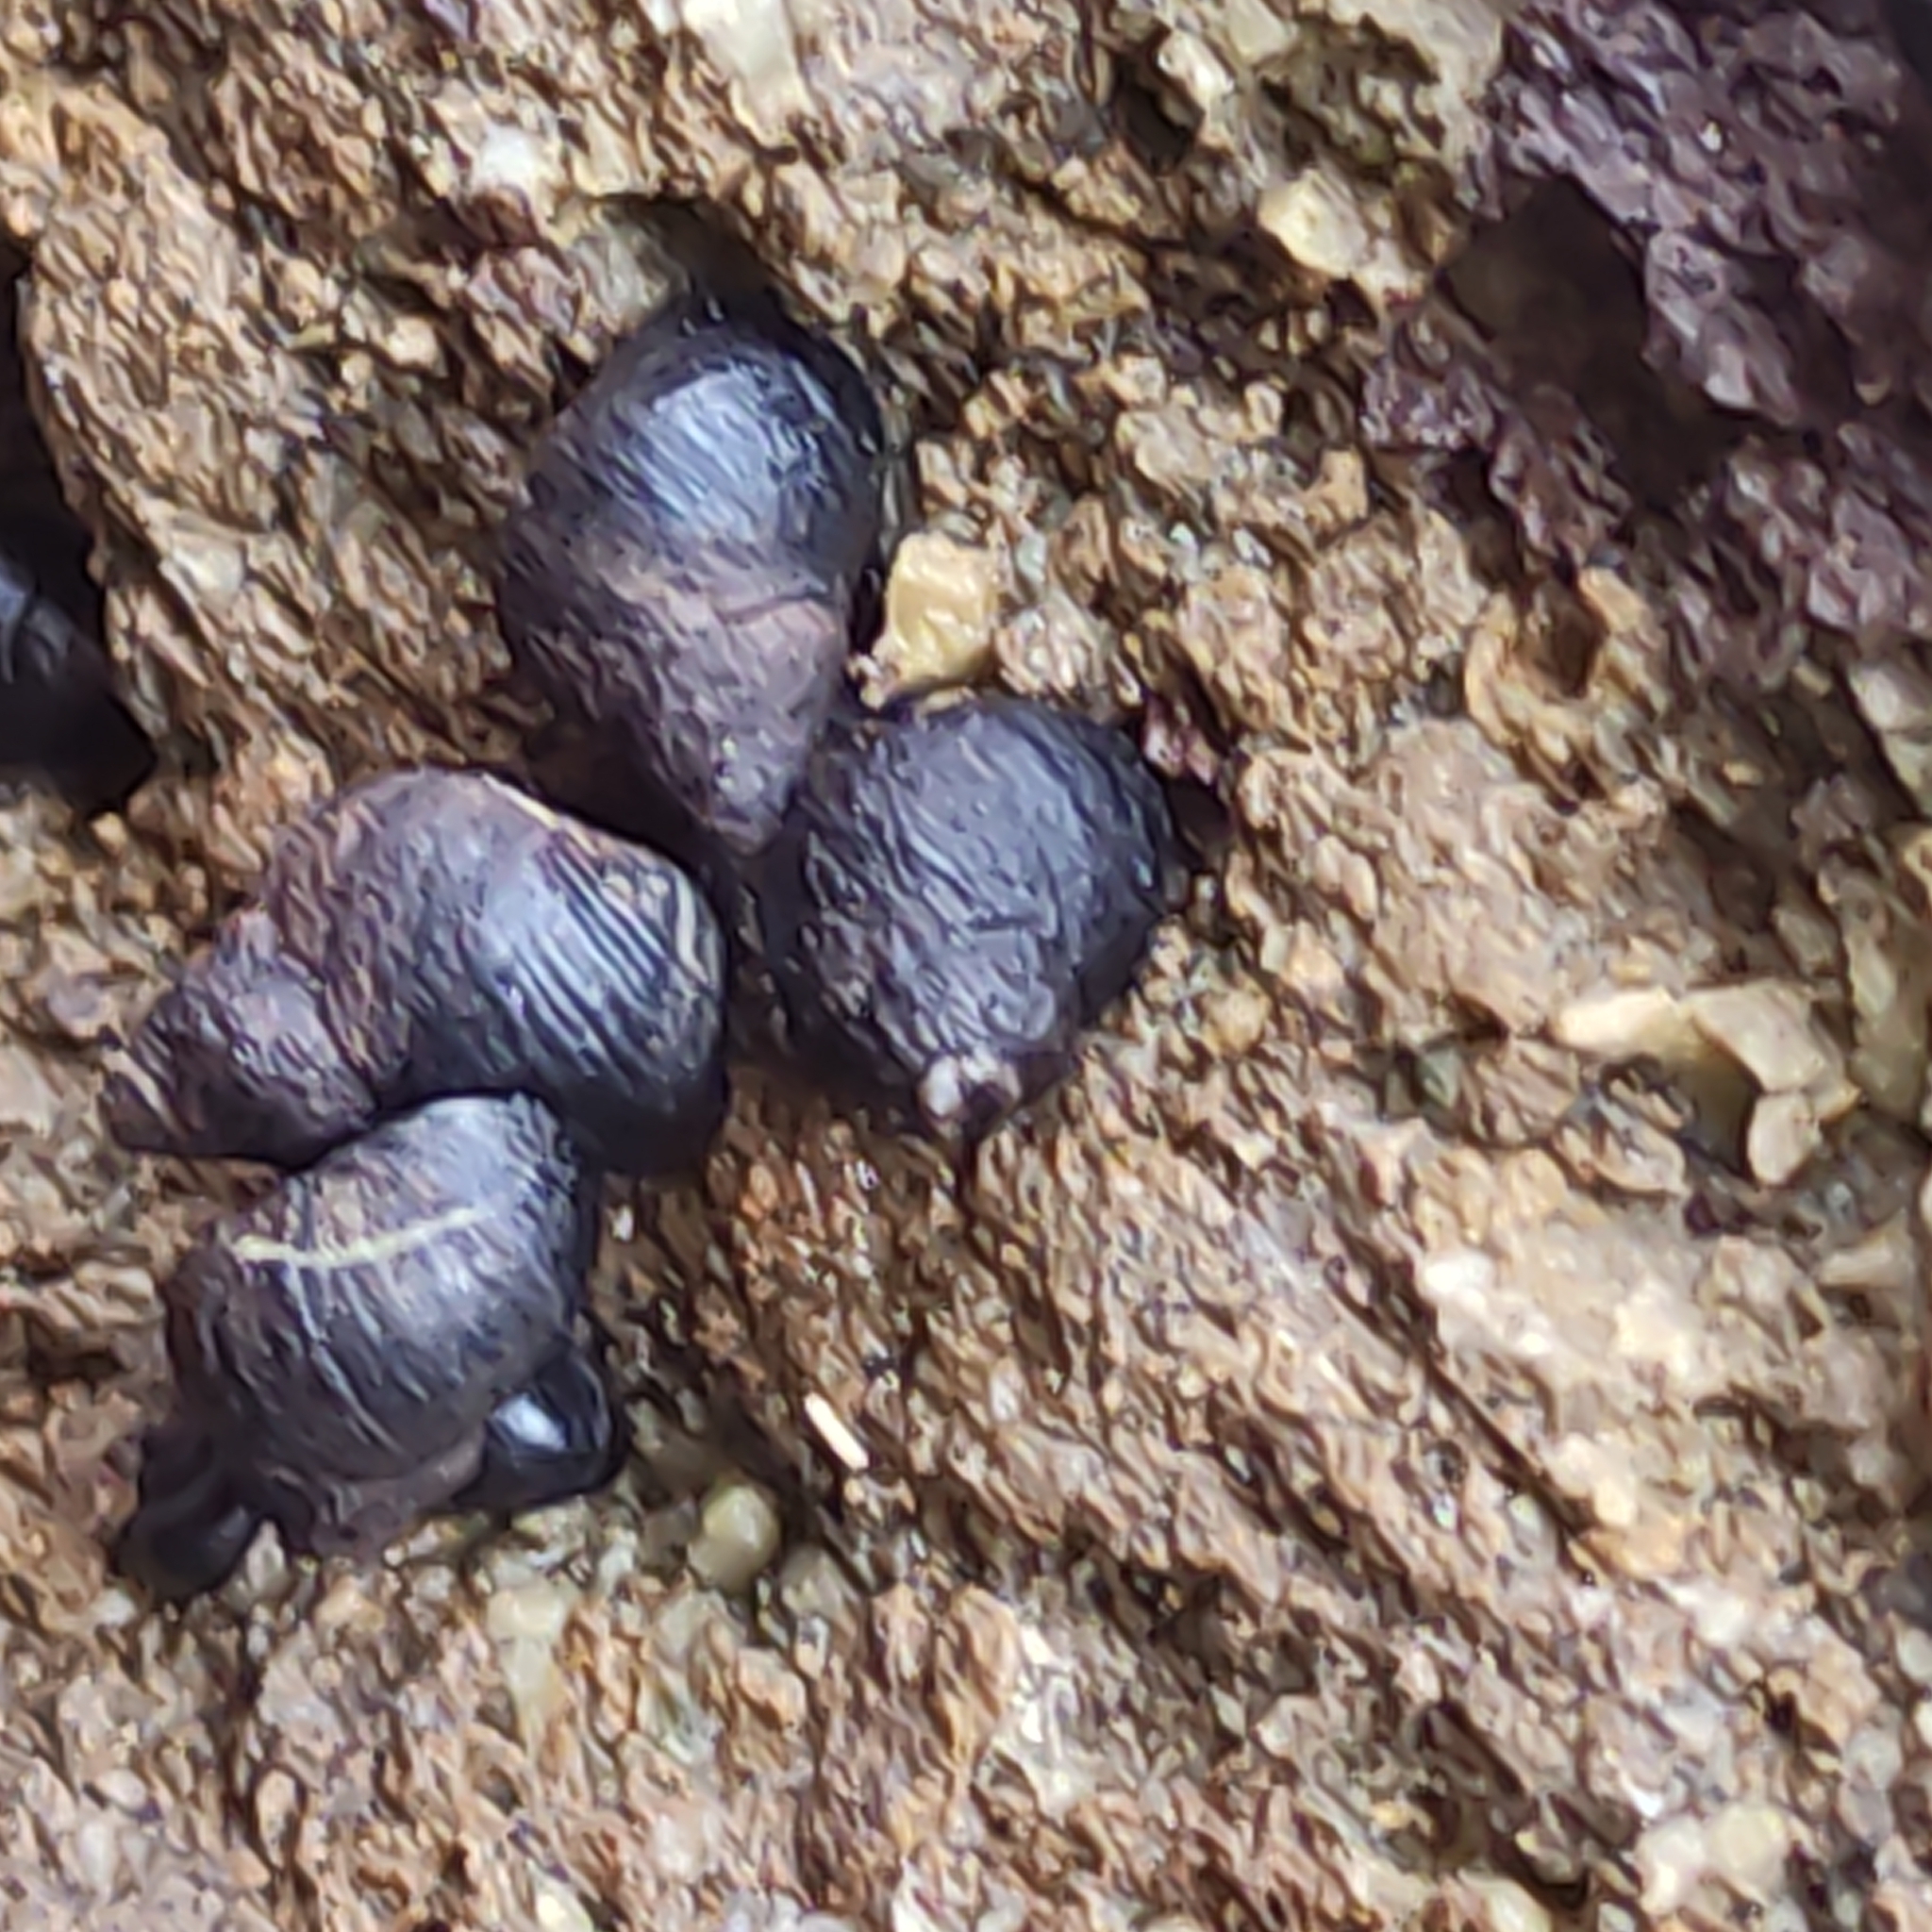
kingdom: Animalia
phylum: Mollusca
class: Gastropoda
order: Littorinimorpha
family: Littorinidae
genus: Austrolittorina
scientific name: Austrolittorina cincta
